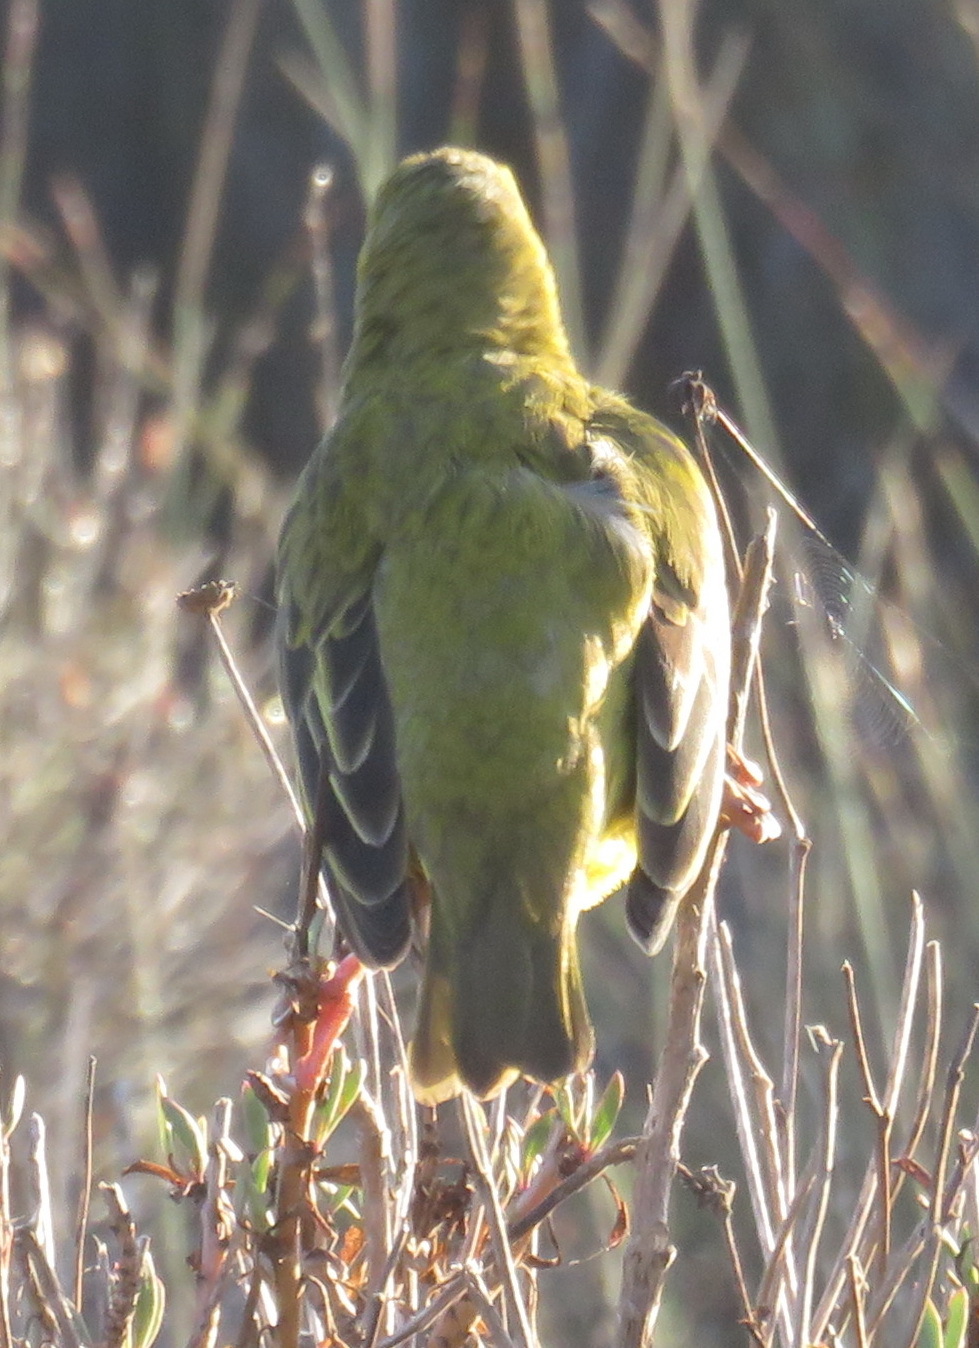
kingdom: Animalia
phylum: Chordata
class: Aves
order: Passeriformes
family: Ploceidae
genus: Ploceus
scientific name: Ploceus capensis
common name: Cape weaver
